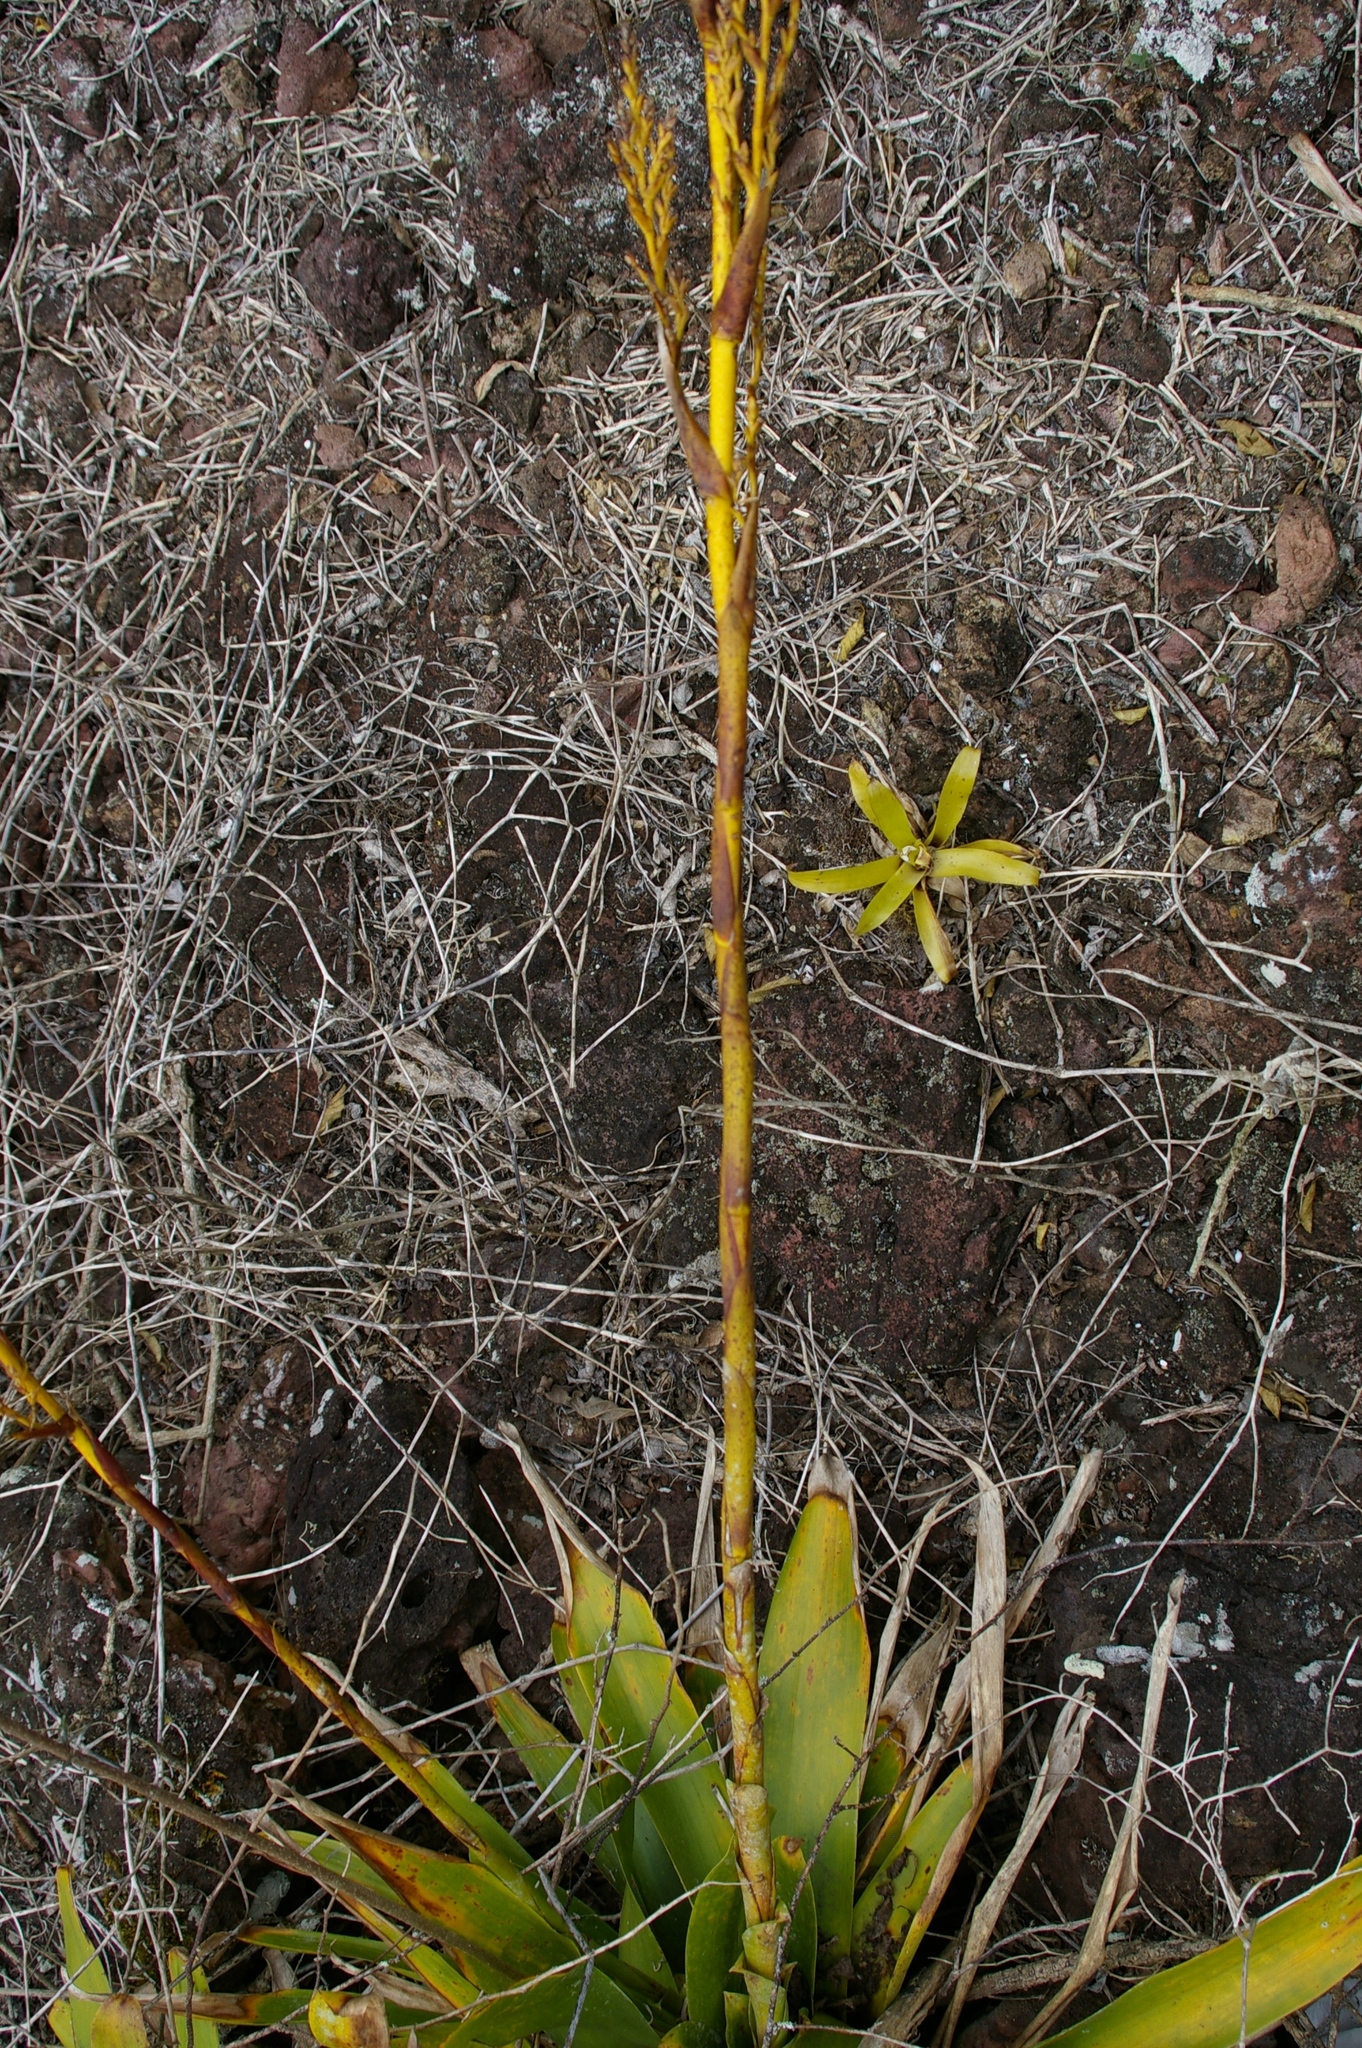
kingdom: Plantae
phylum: Tracheophyta
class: Liliopsida
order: Poales
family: Bromeliaceae
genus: Racinaea
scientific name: Racinaea insularis
